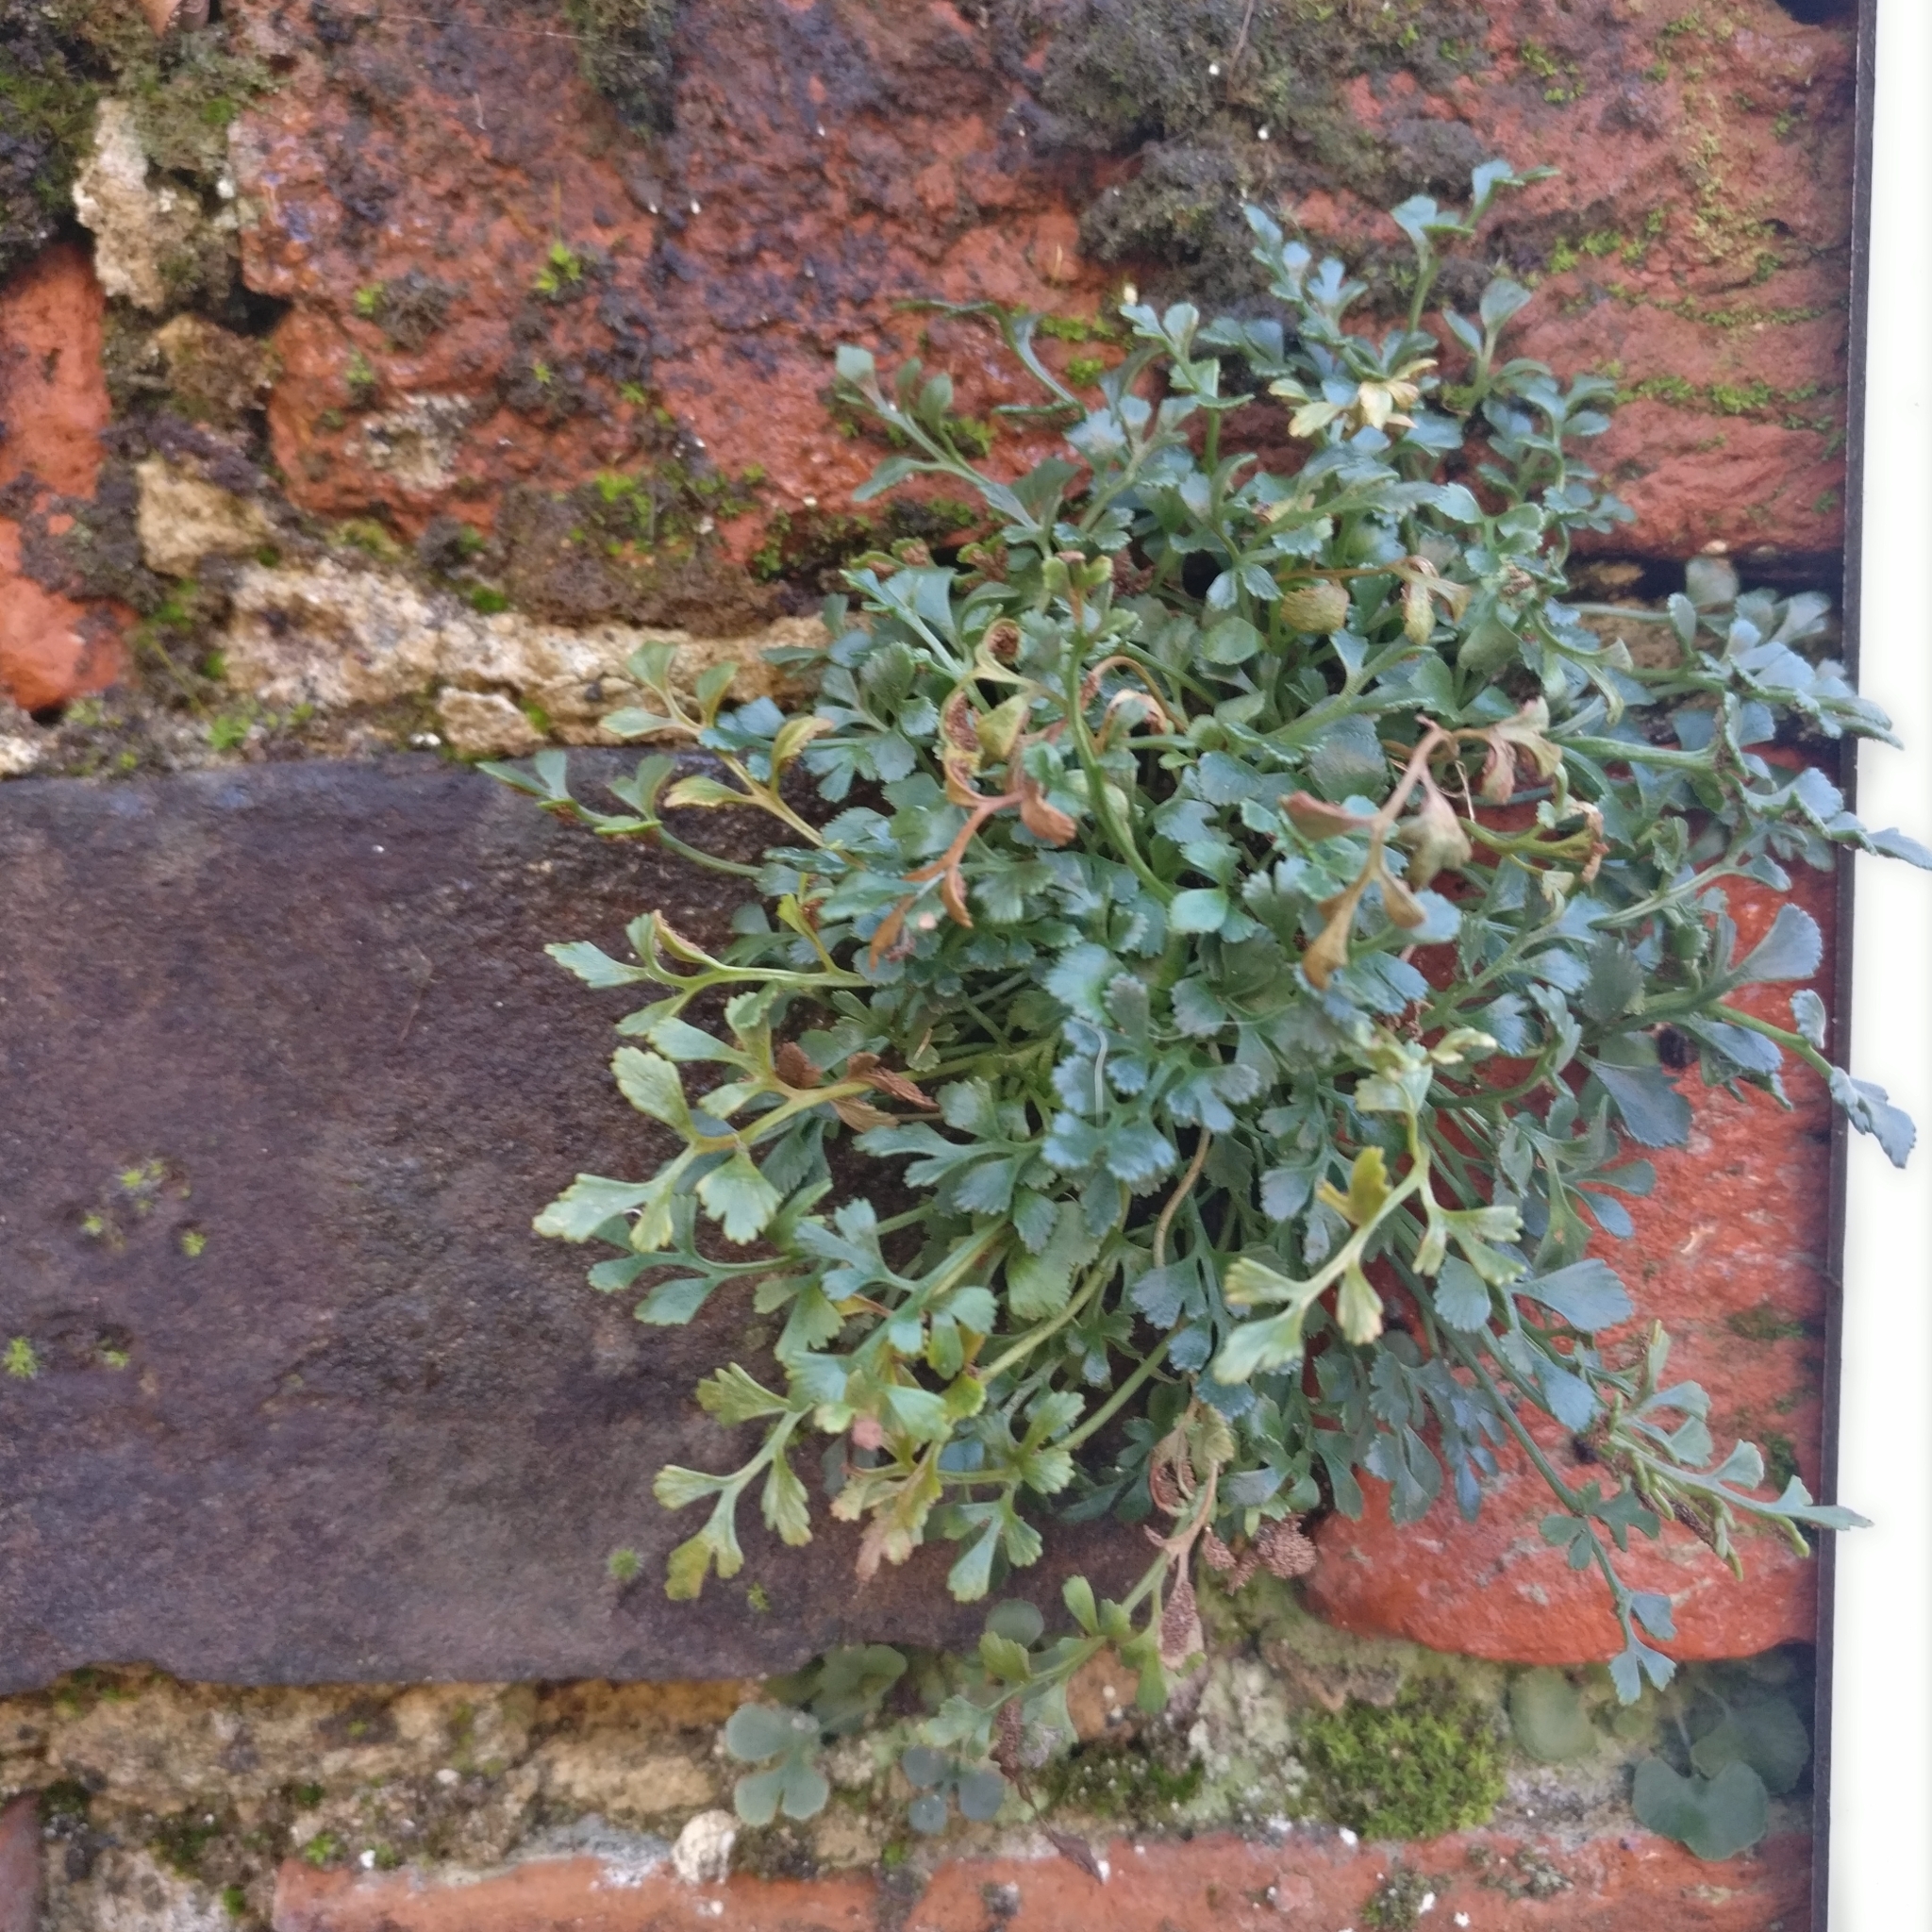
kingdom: Plantae
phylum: Tracheophyta
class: Polypodiopsida
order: Polypodiales
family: Aspleniaceae
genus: Asplenium
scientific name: Asplenium ruta-muraria
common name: Wall-rue
